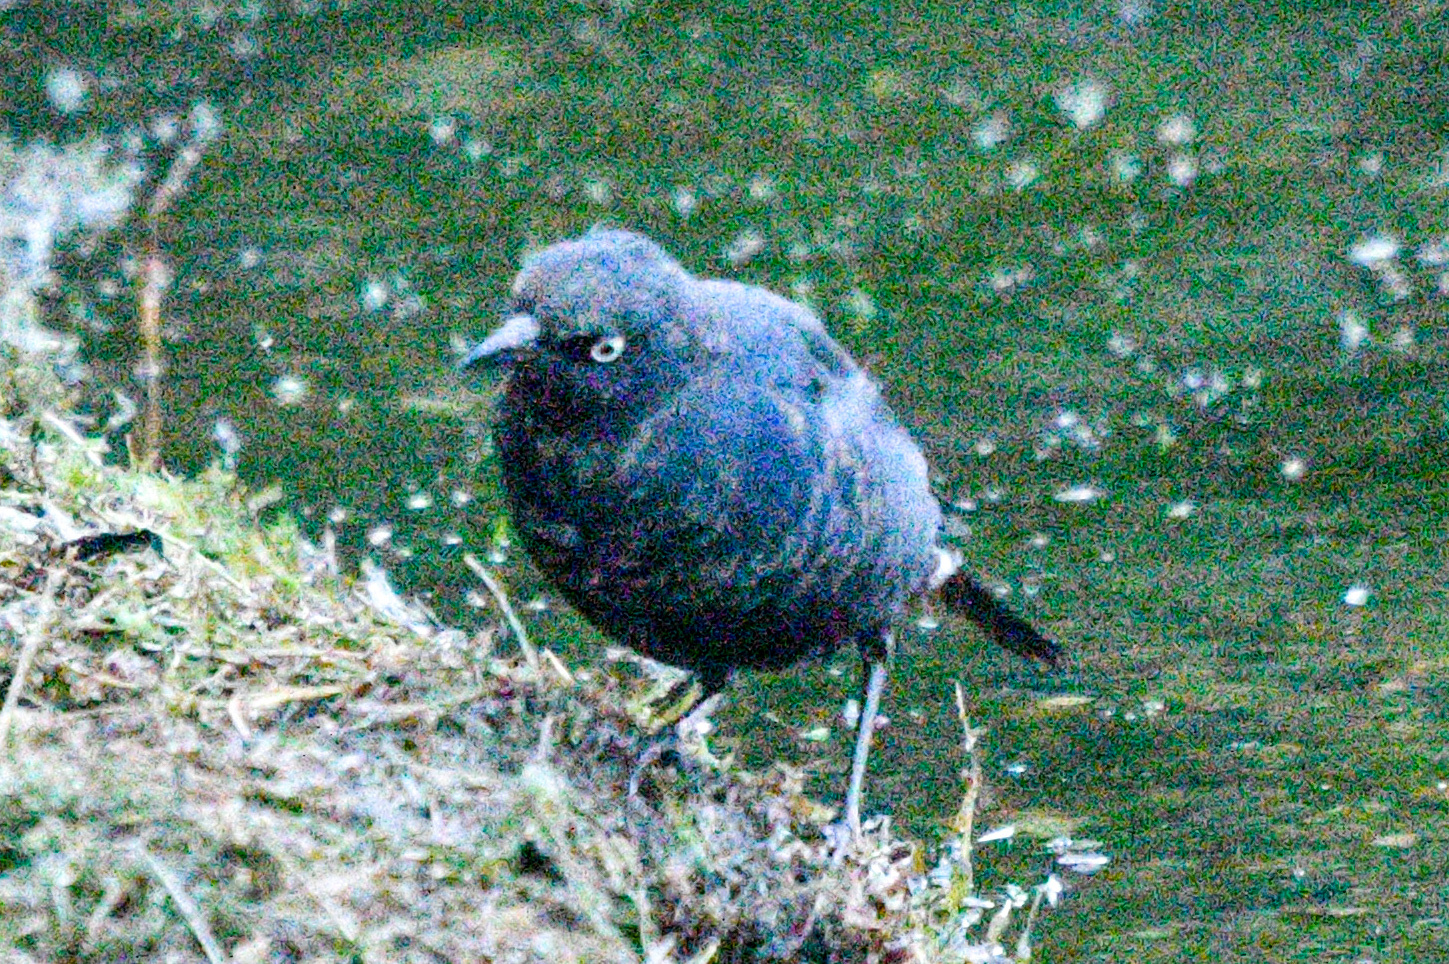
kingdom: Animalia
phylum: Chordata
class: Aves
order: Passeriformes
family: Icteridae
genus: Euphagus
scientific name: Euphagus carolinus
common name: Rusty blackbird
